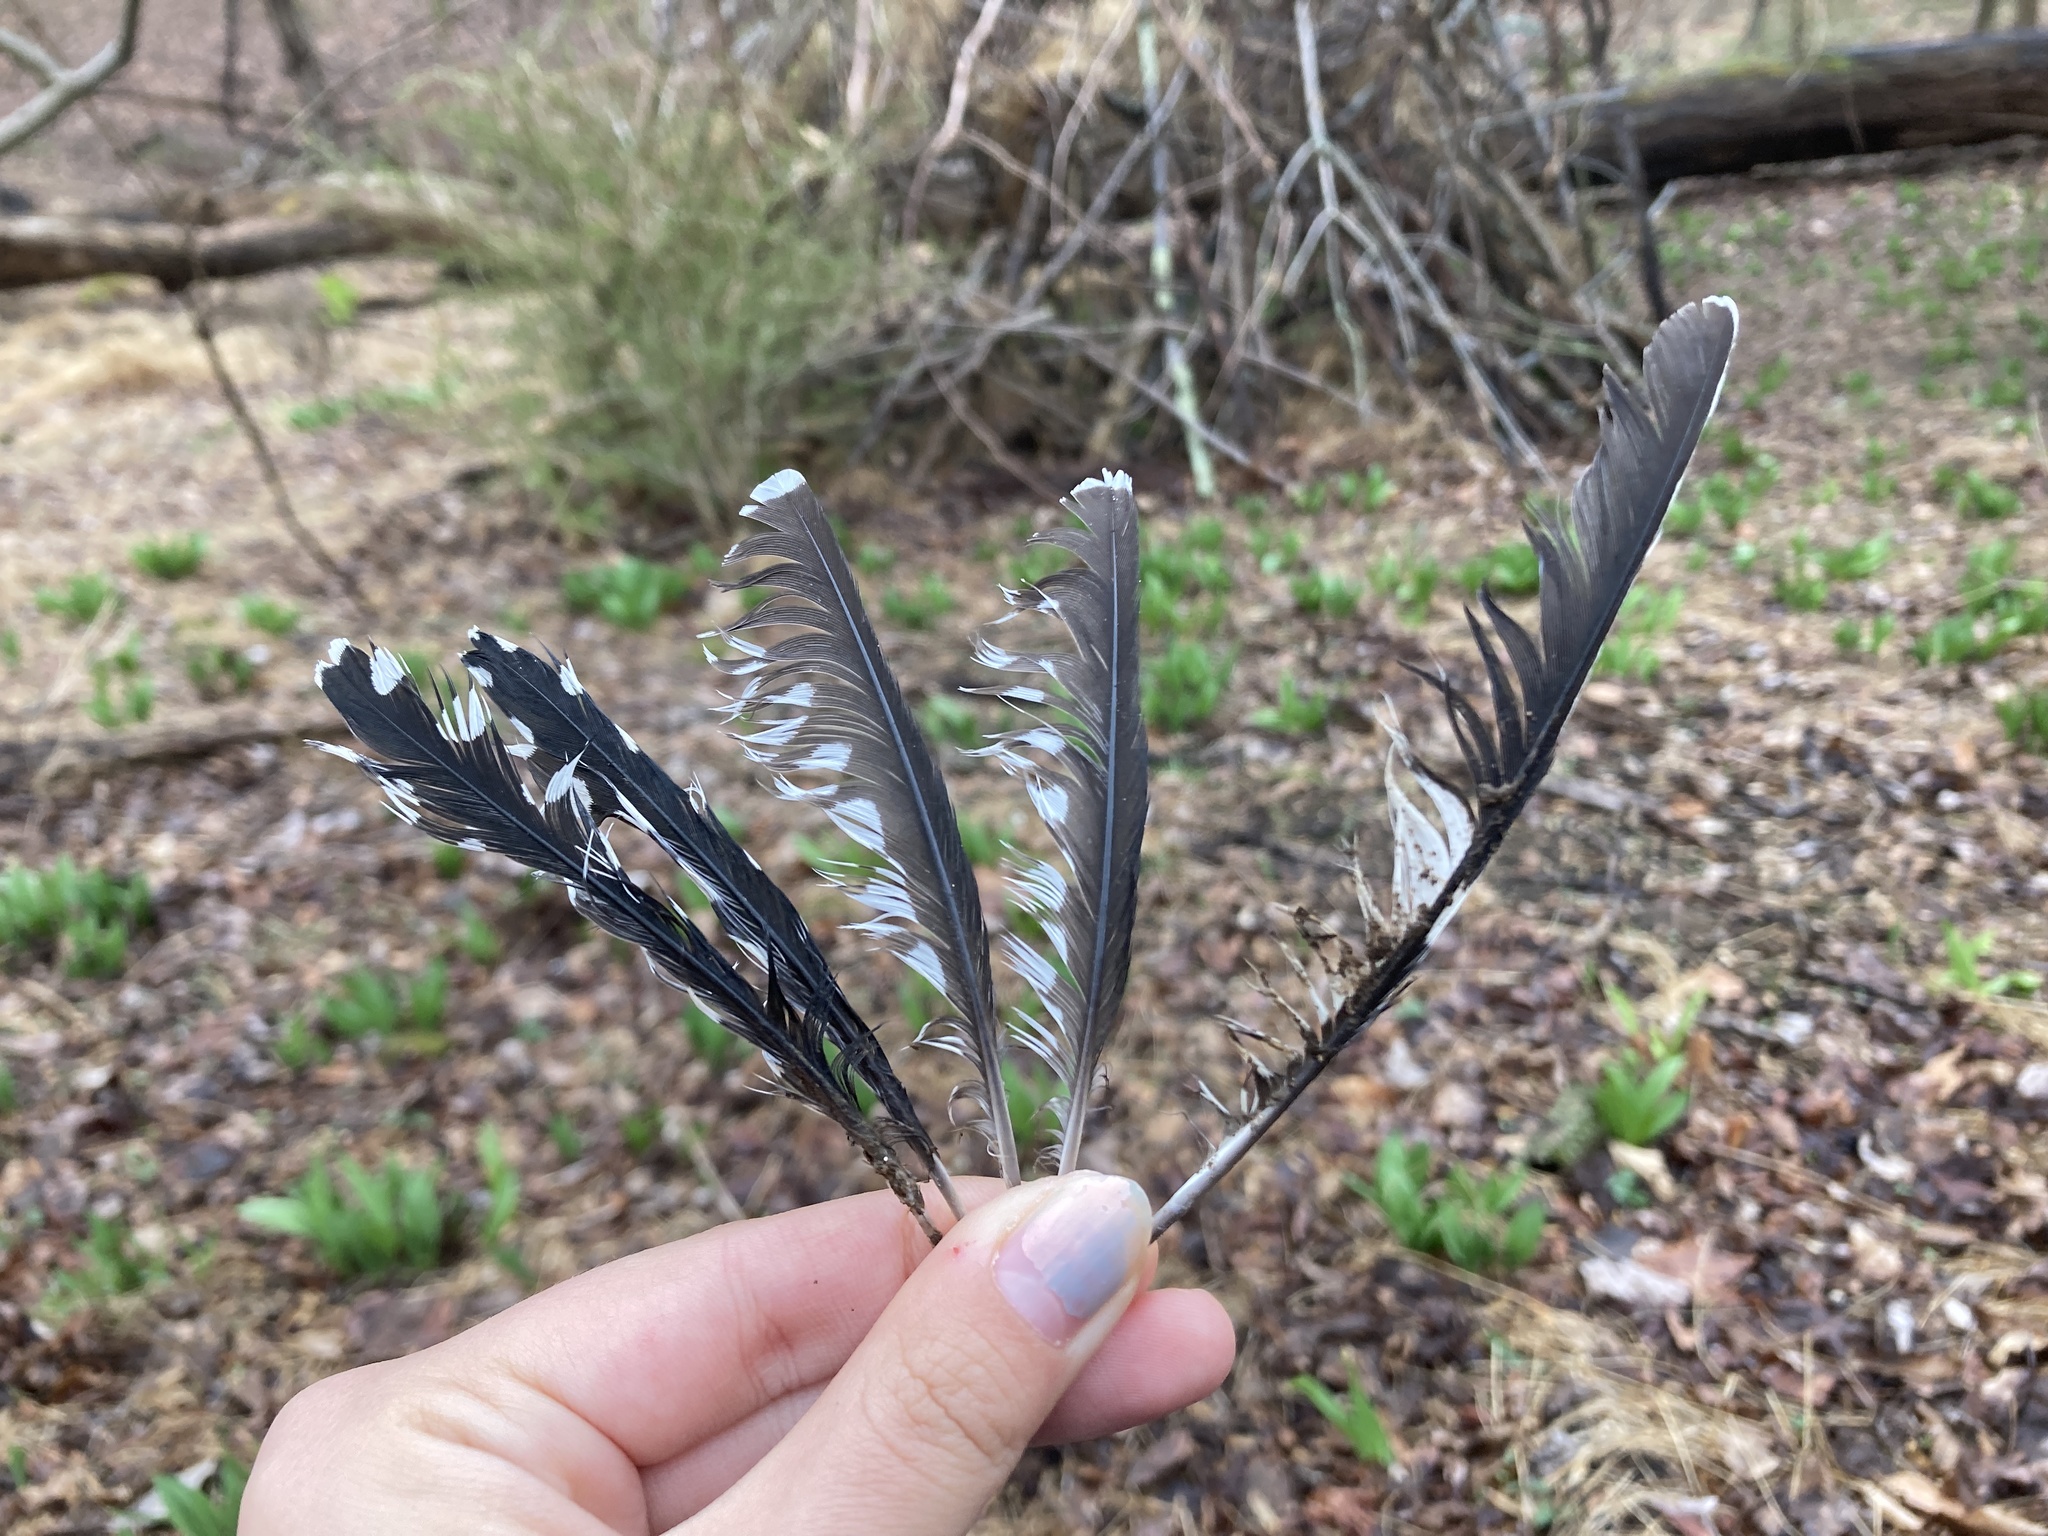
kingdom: Animalia
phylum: Chordata
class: Aves
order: Piciformes
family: Picidae
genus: Melanerpes
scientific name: Melanerpes carolinus
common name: Red-bellied woodpecker
